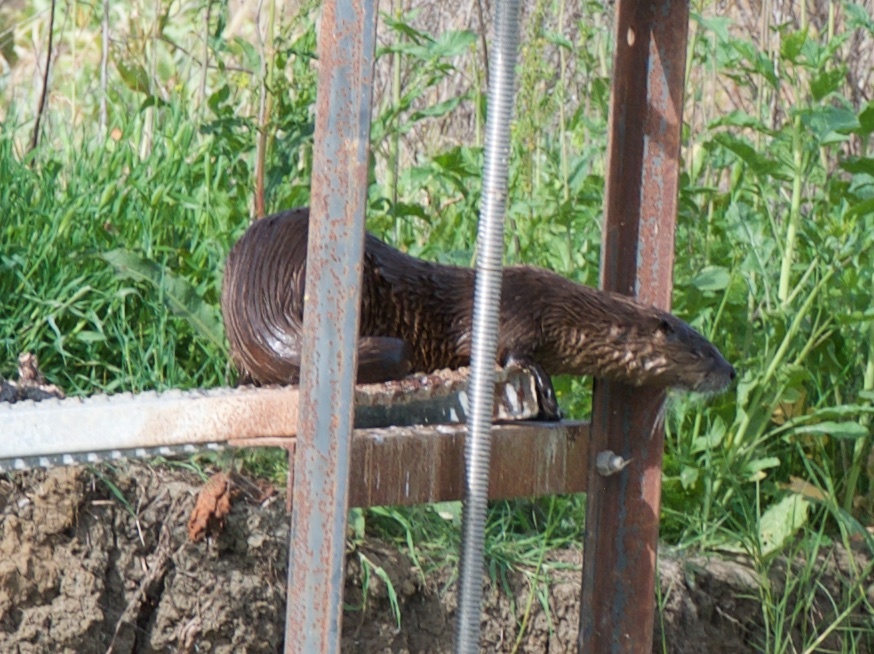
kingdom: Animalia
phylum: Chordata
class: Mammalia
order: Carnivora
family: Mustelidae
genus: Lontra
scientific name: Lontra canadensis
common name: North american river otter
